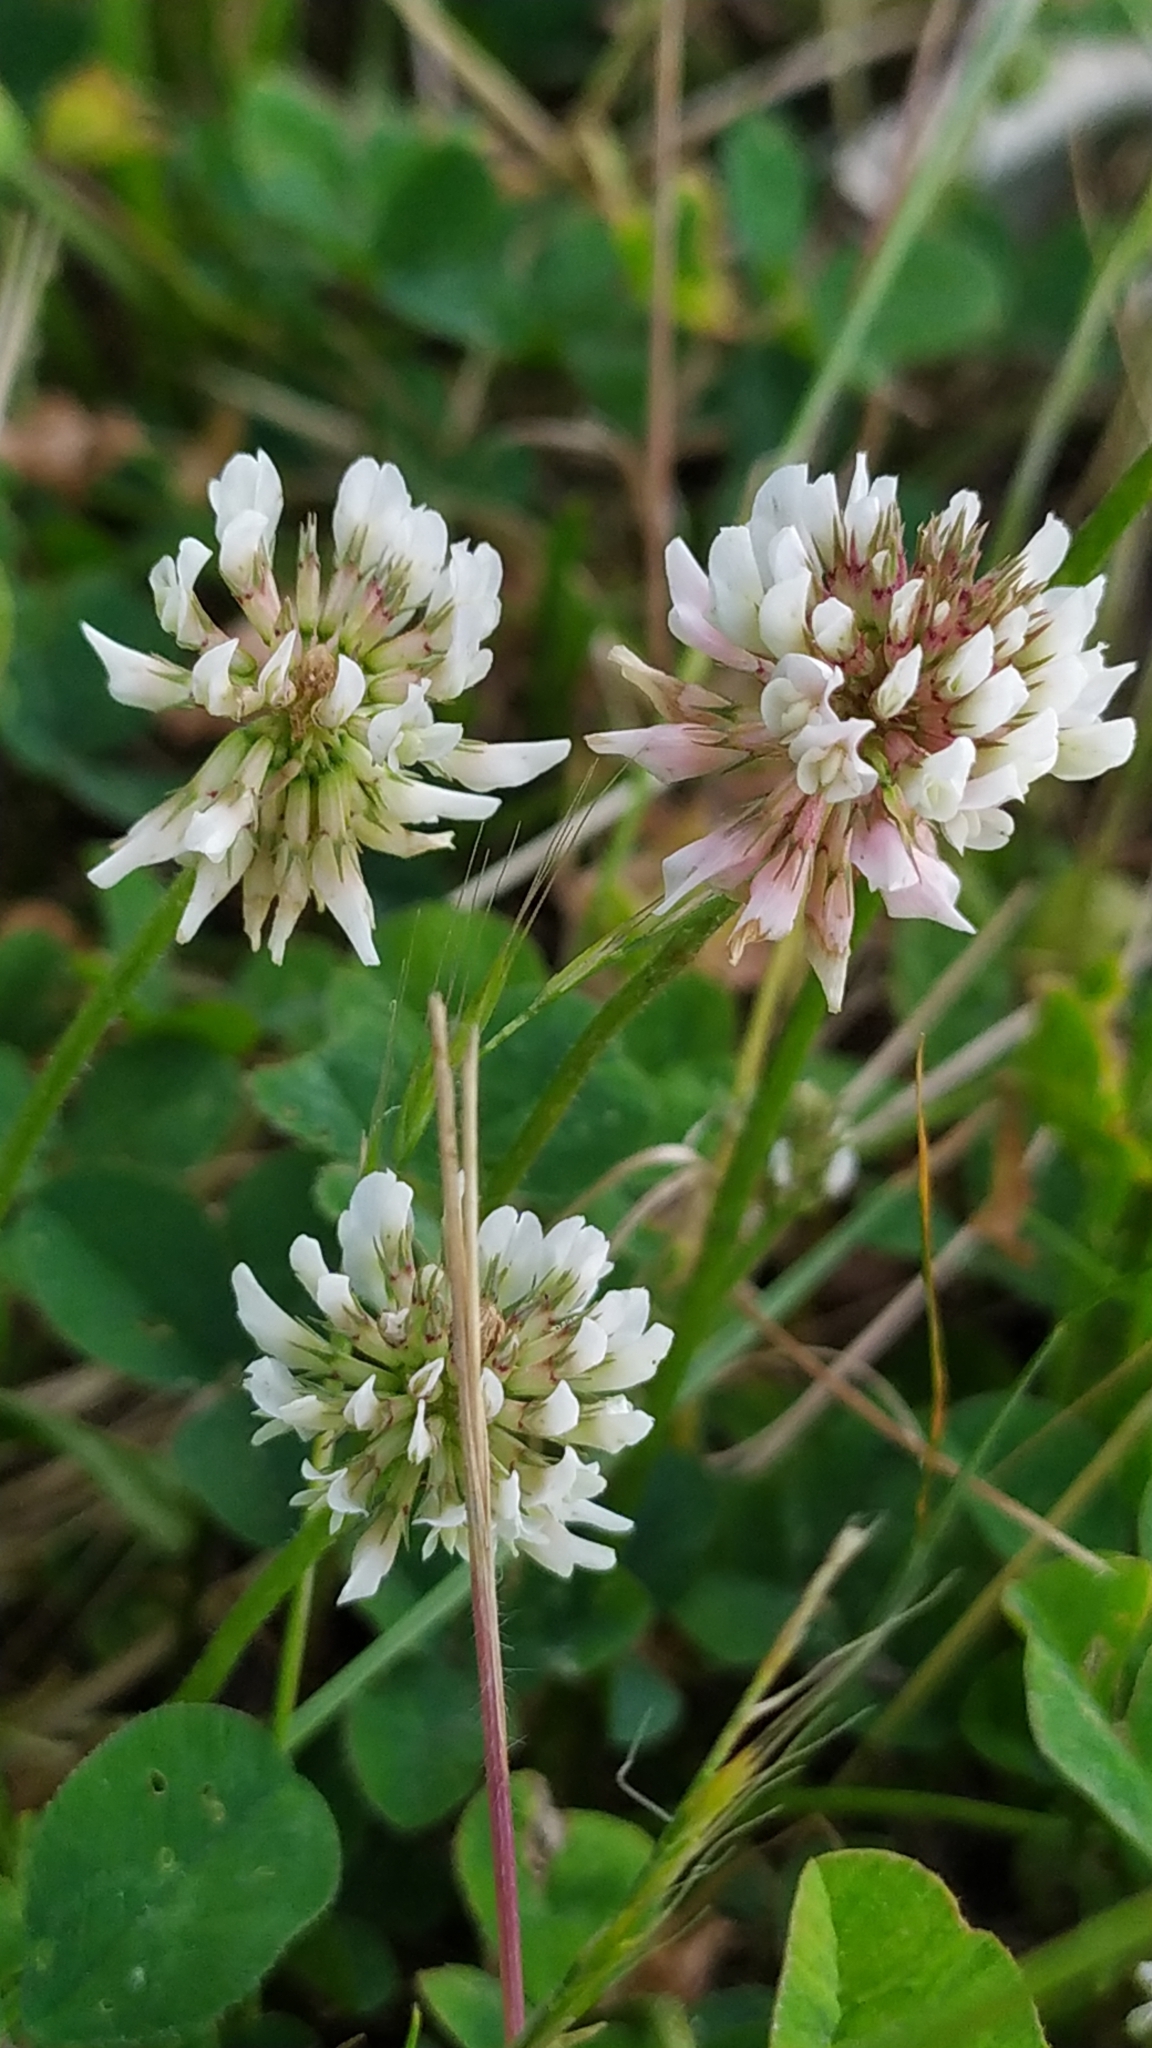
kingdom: Plantae
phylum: Tracheophyta
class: Magnoliopsida
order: Fabales
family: Fabaceae
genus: Trifolium
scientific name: Trifolium repens
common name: White clover
